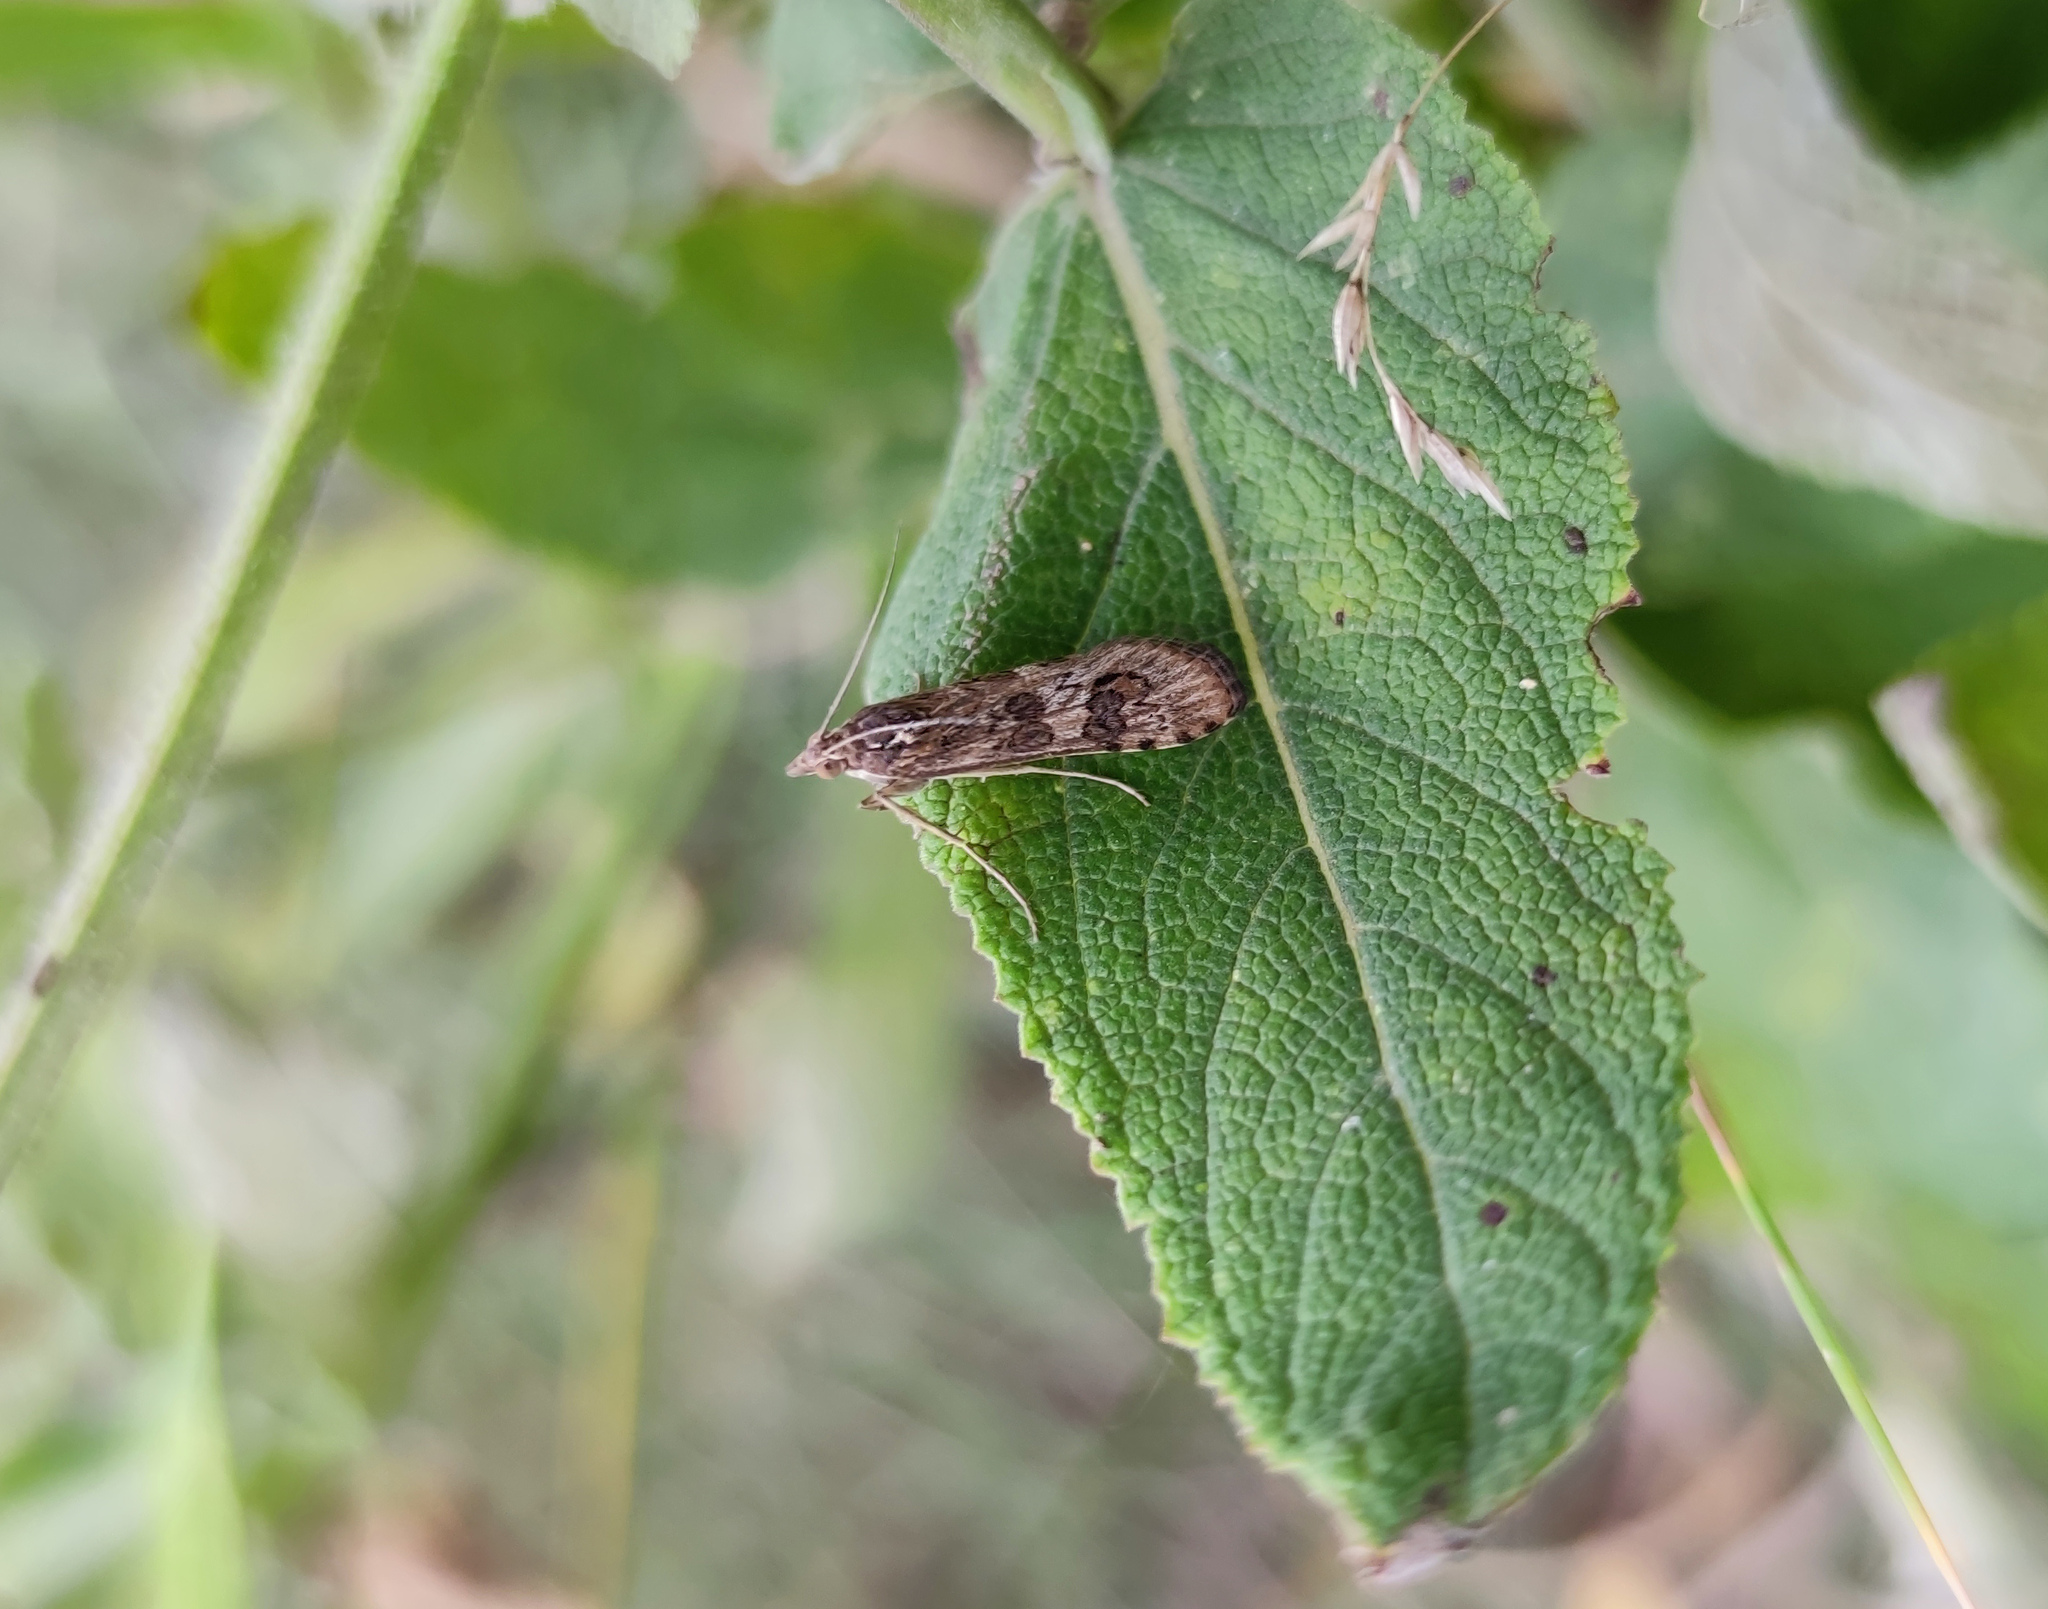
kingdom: Animalia
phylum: Arthropoda
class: Insecta
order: Lepidoptera
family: Crambidae
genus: Nomophila
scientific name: Nomophila noctuella
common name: Rush veneer
